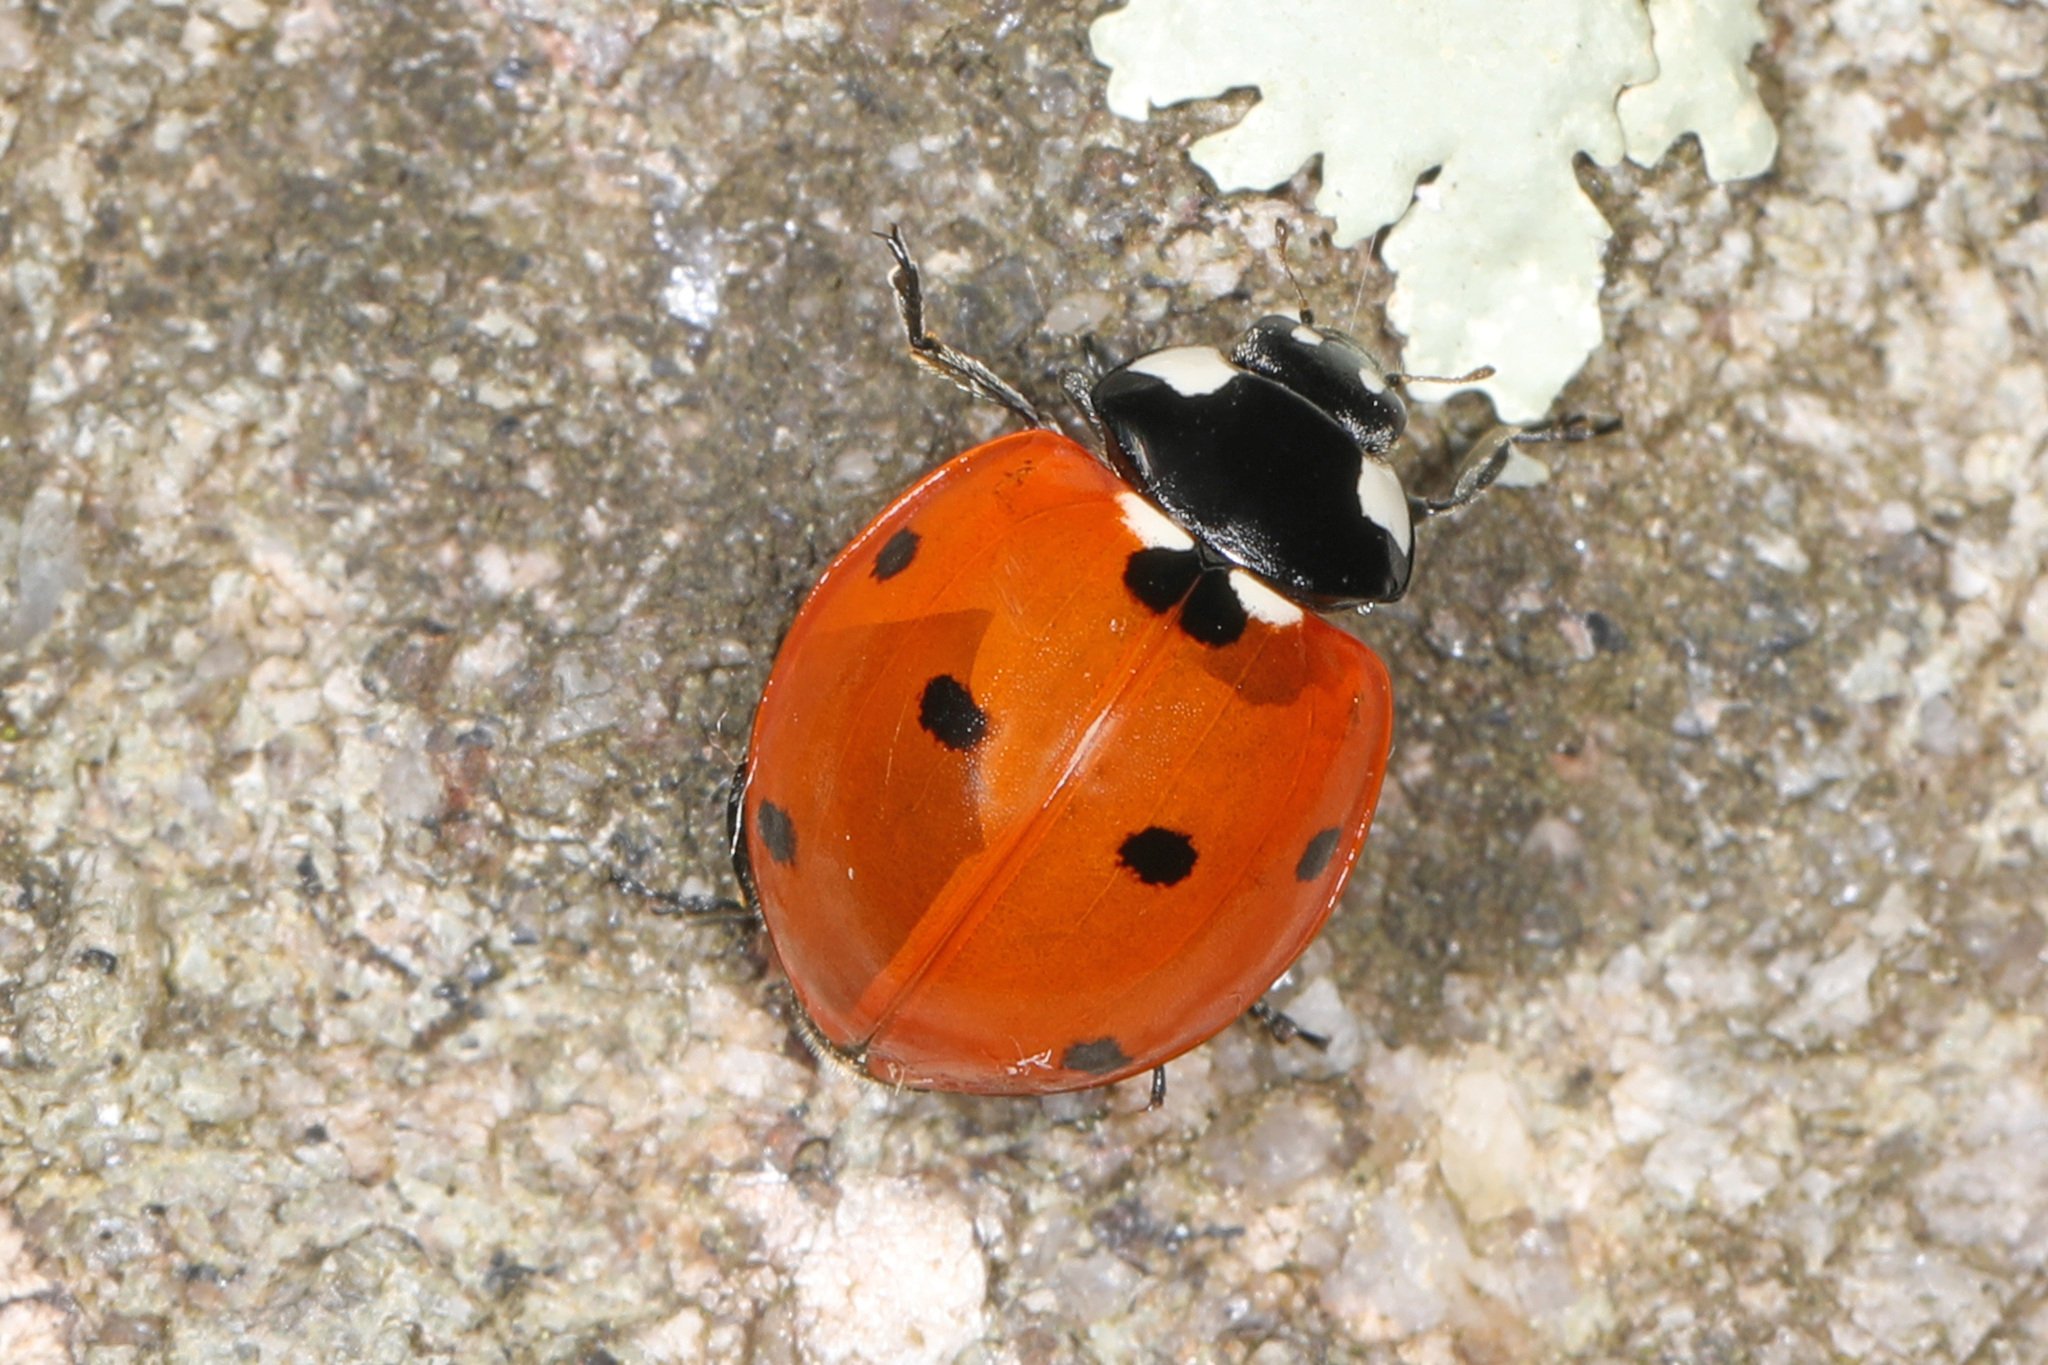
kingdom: Animalia
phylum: Arthropoda
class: Insecta
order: Coleoptera
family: Coccinellidae
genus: Coccinella
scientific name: Coccinella septempunctata
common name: Sevenspotted lady beetle
